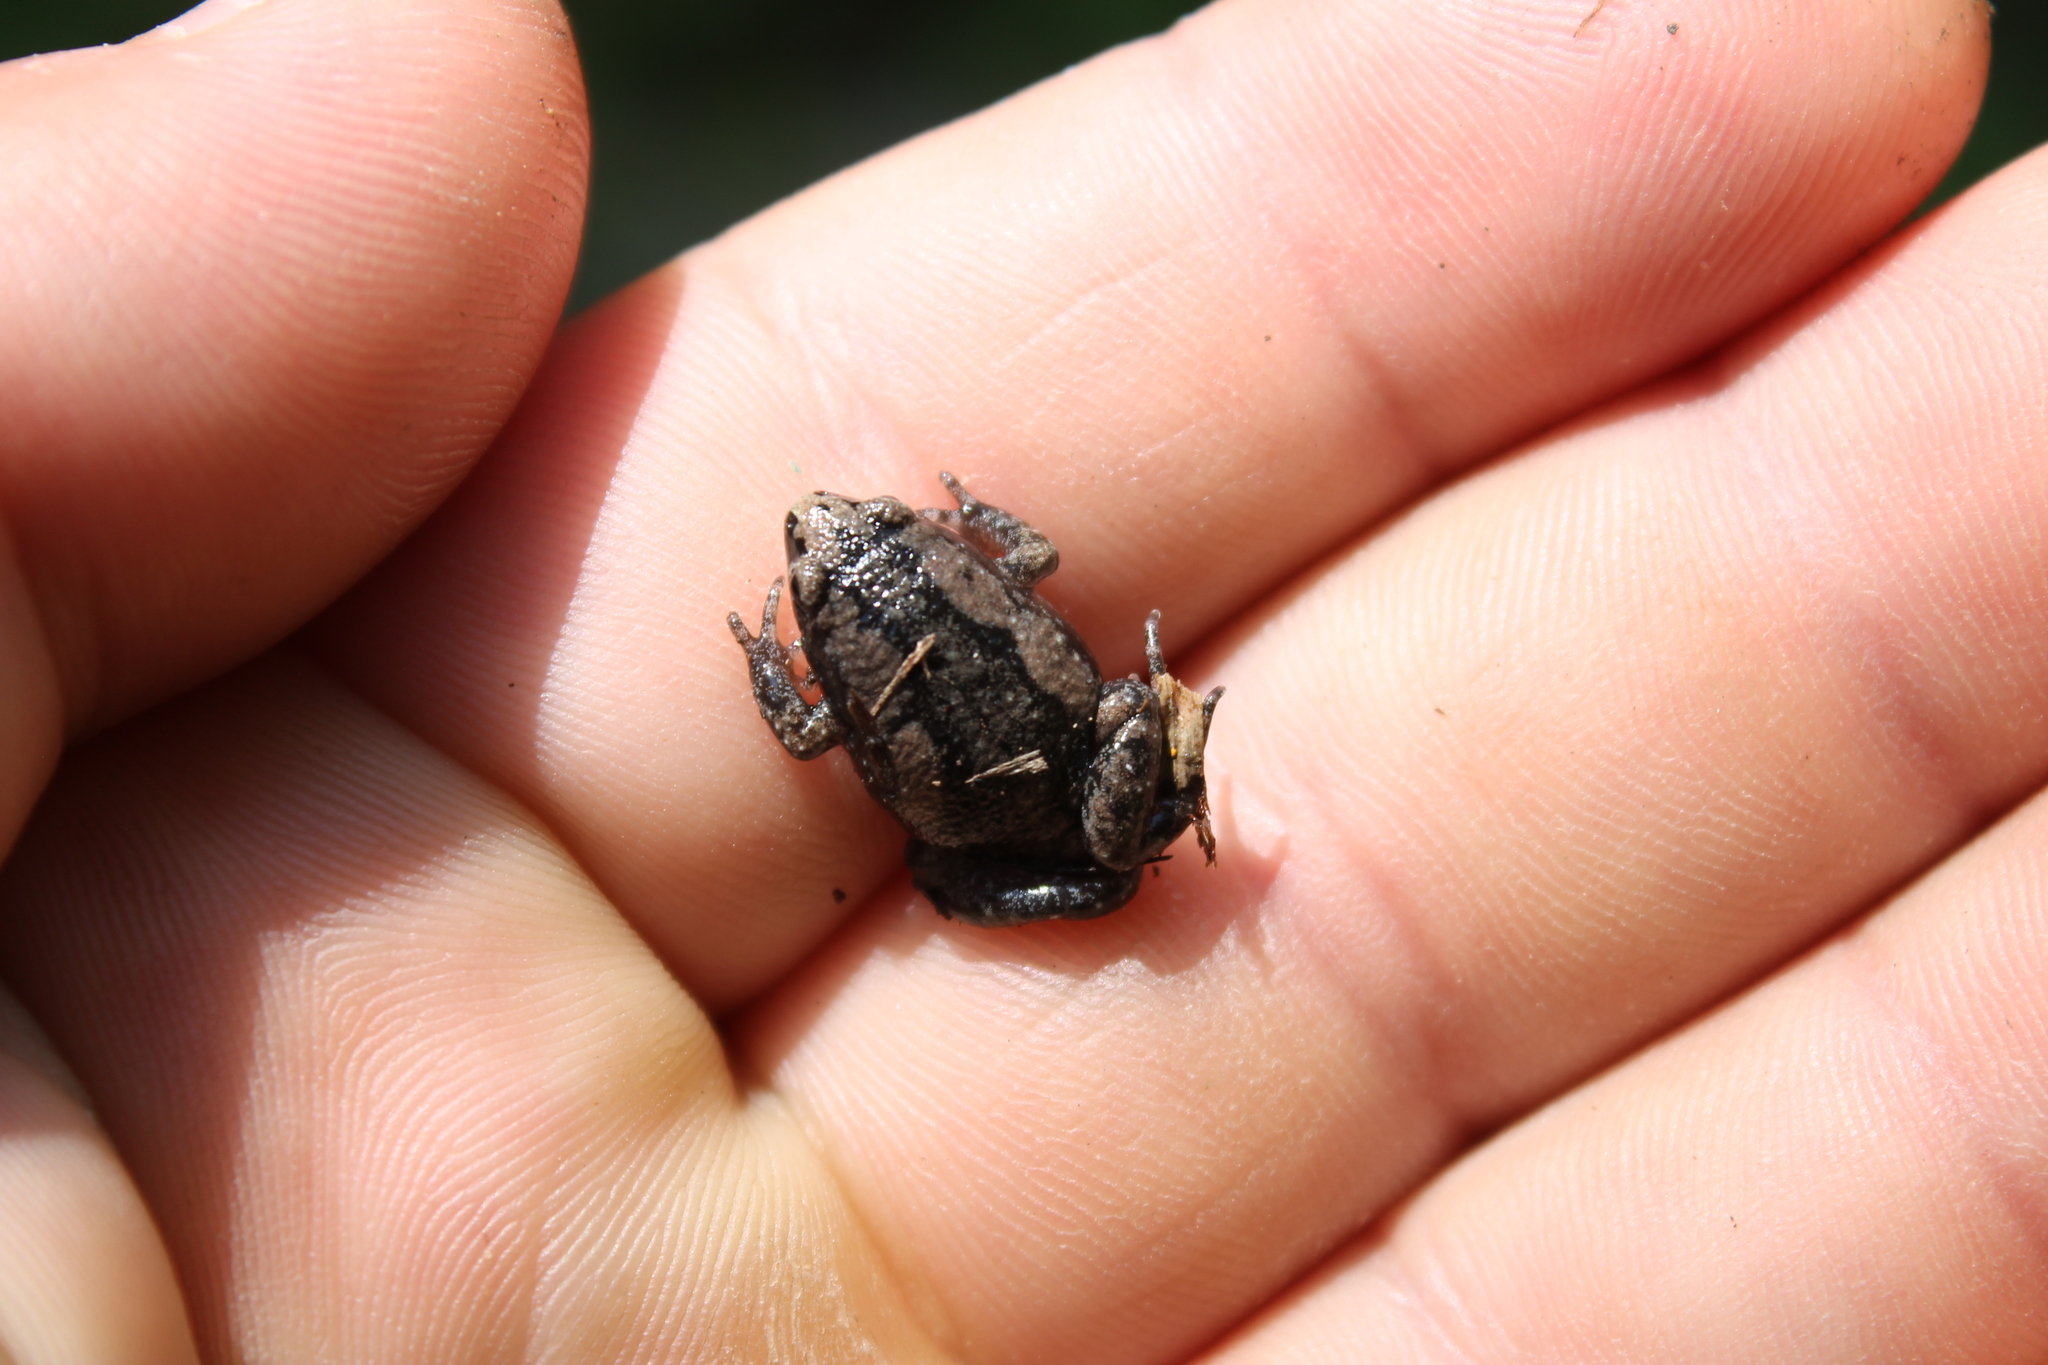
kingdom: Animalia
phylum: Chordata
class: Amphibia
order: Anura
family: Microhylidae
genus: Gastrophryne
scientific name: Gastrophryne carolinensis
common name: Eastern narrowmouth toad
